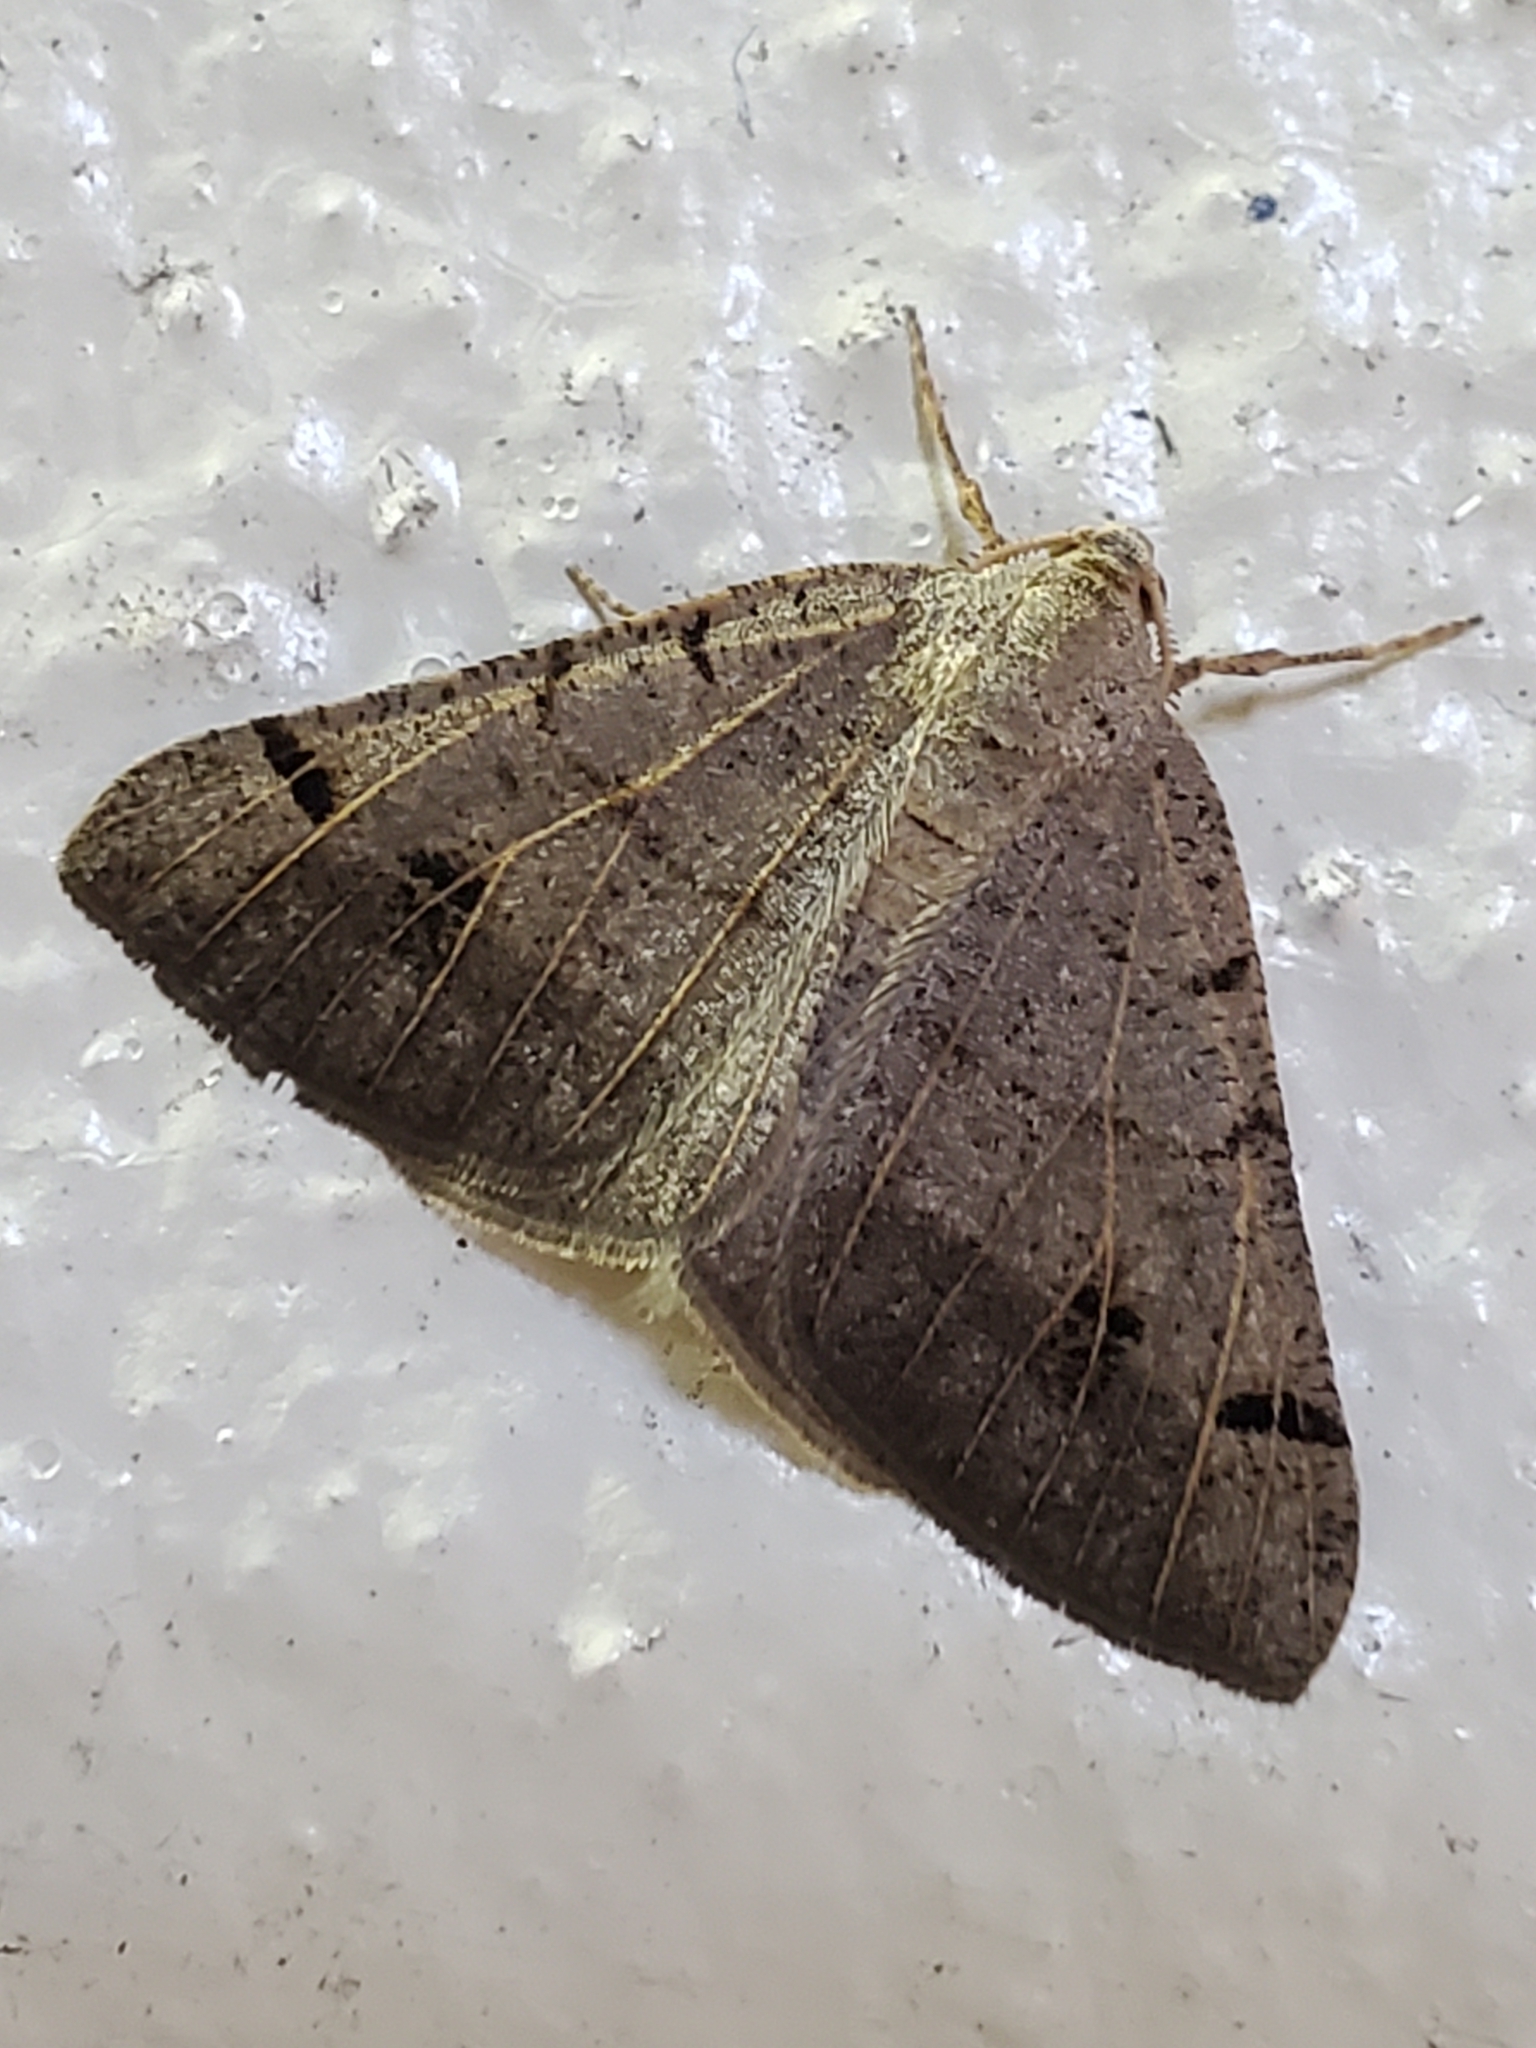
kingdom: Animalia
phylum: Arthropoda
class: Insecta
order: Lepidoptera
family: Geometridae
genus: Isturgia
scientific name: Isturgia dislocaria
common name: Pale-viened enconista
